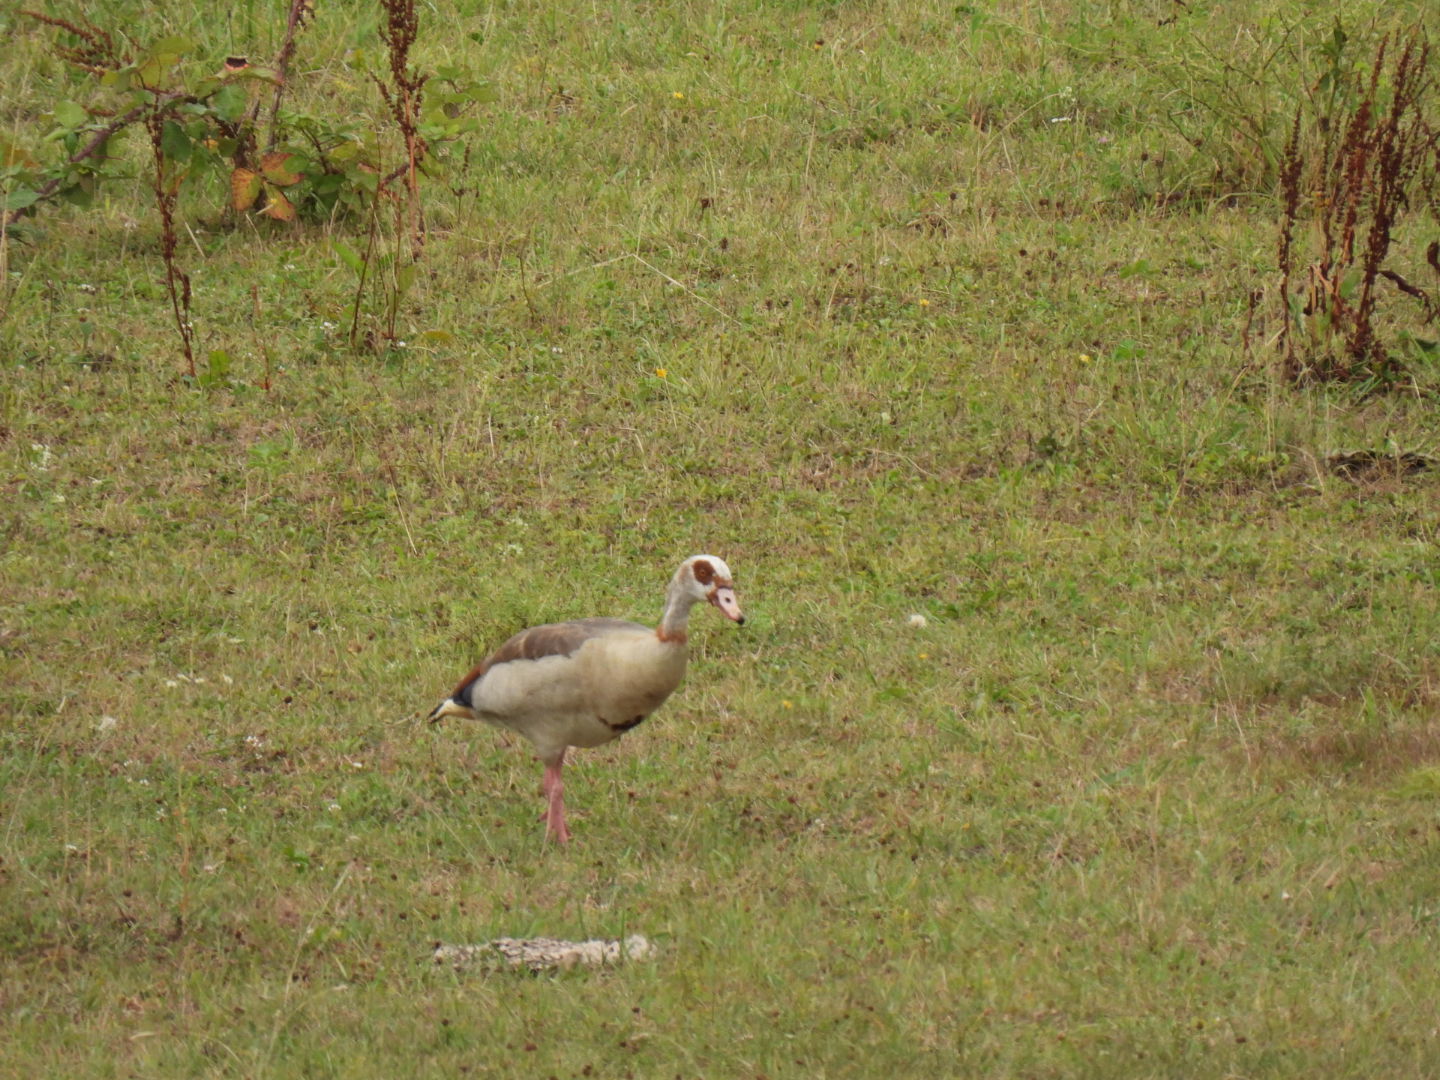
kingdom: Animalia
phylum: Chordata
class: Aves
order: Anseriformes
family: Anatidae
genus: Alopochen
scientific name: Alopochen aegyptiaca
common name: Egyptian goose
